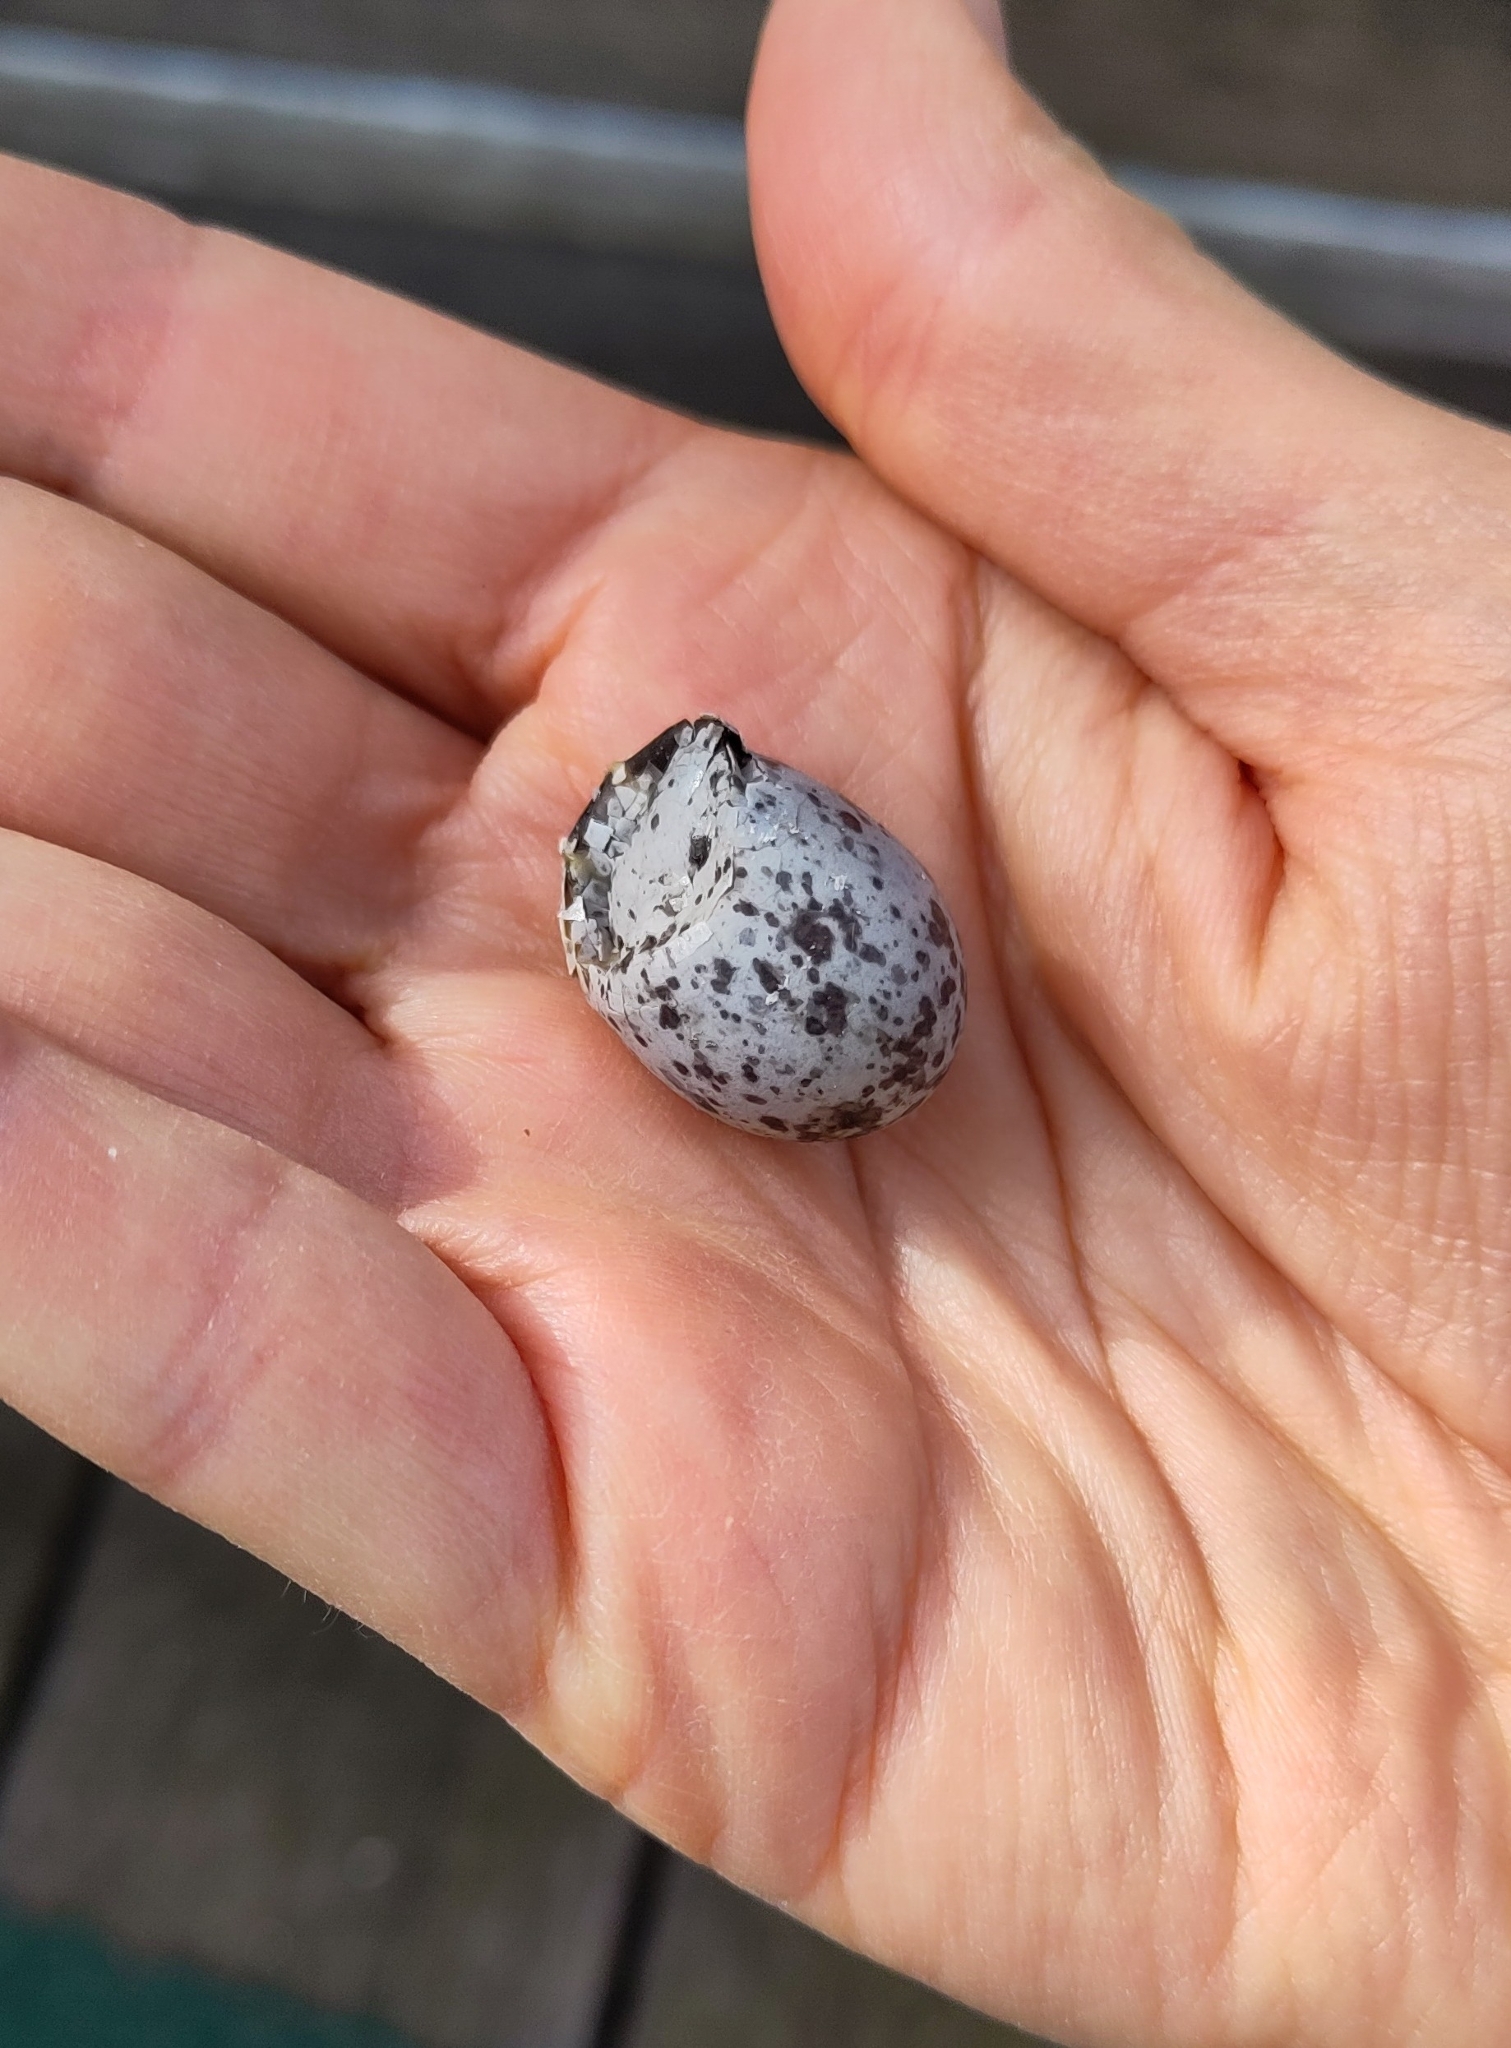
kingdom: Animalia
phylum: Chordata
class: Aves
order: Passeriformes
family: Passeridae
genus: Passer
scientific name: Passer domesticus
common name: House sparrow
